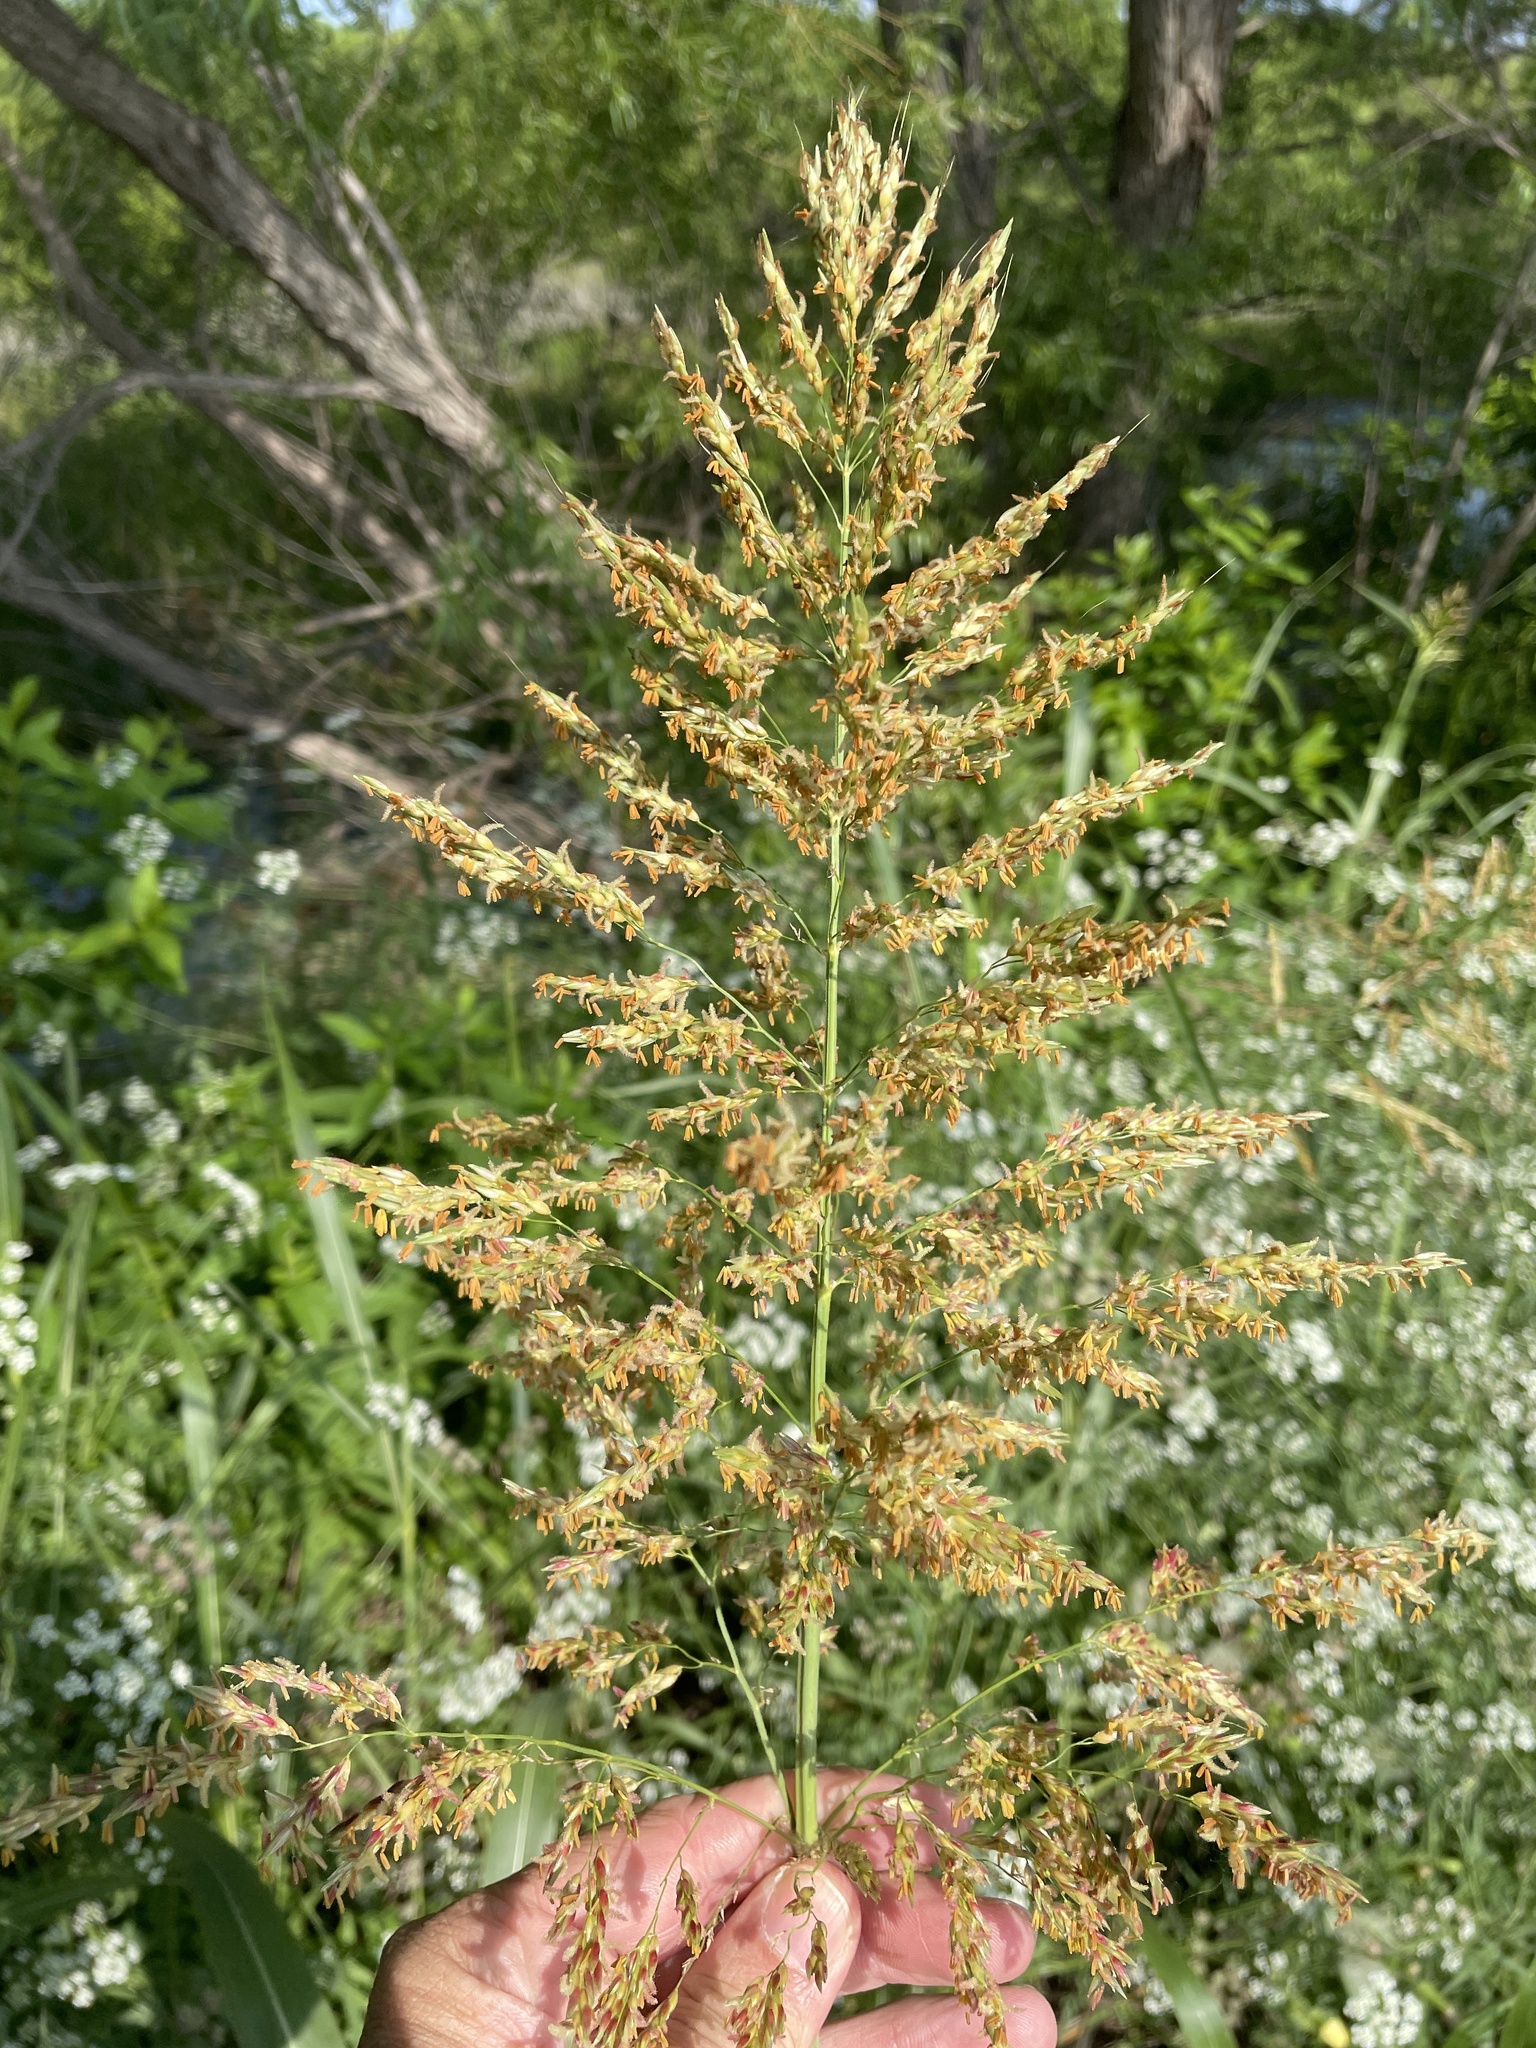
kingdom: Plantae
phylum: Tracheophyta
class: Liliopsida
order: Poales
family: Poaceae
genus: Sorghum
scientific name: Sorghum halepense
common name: Johnson-grass
